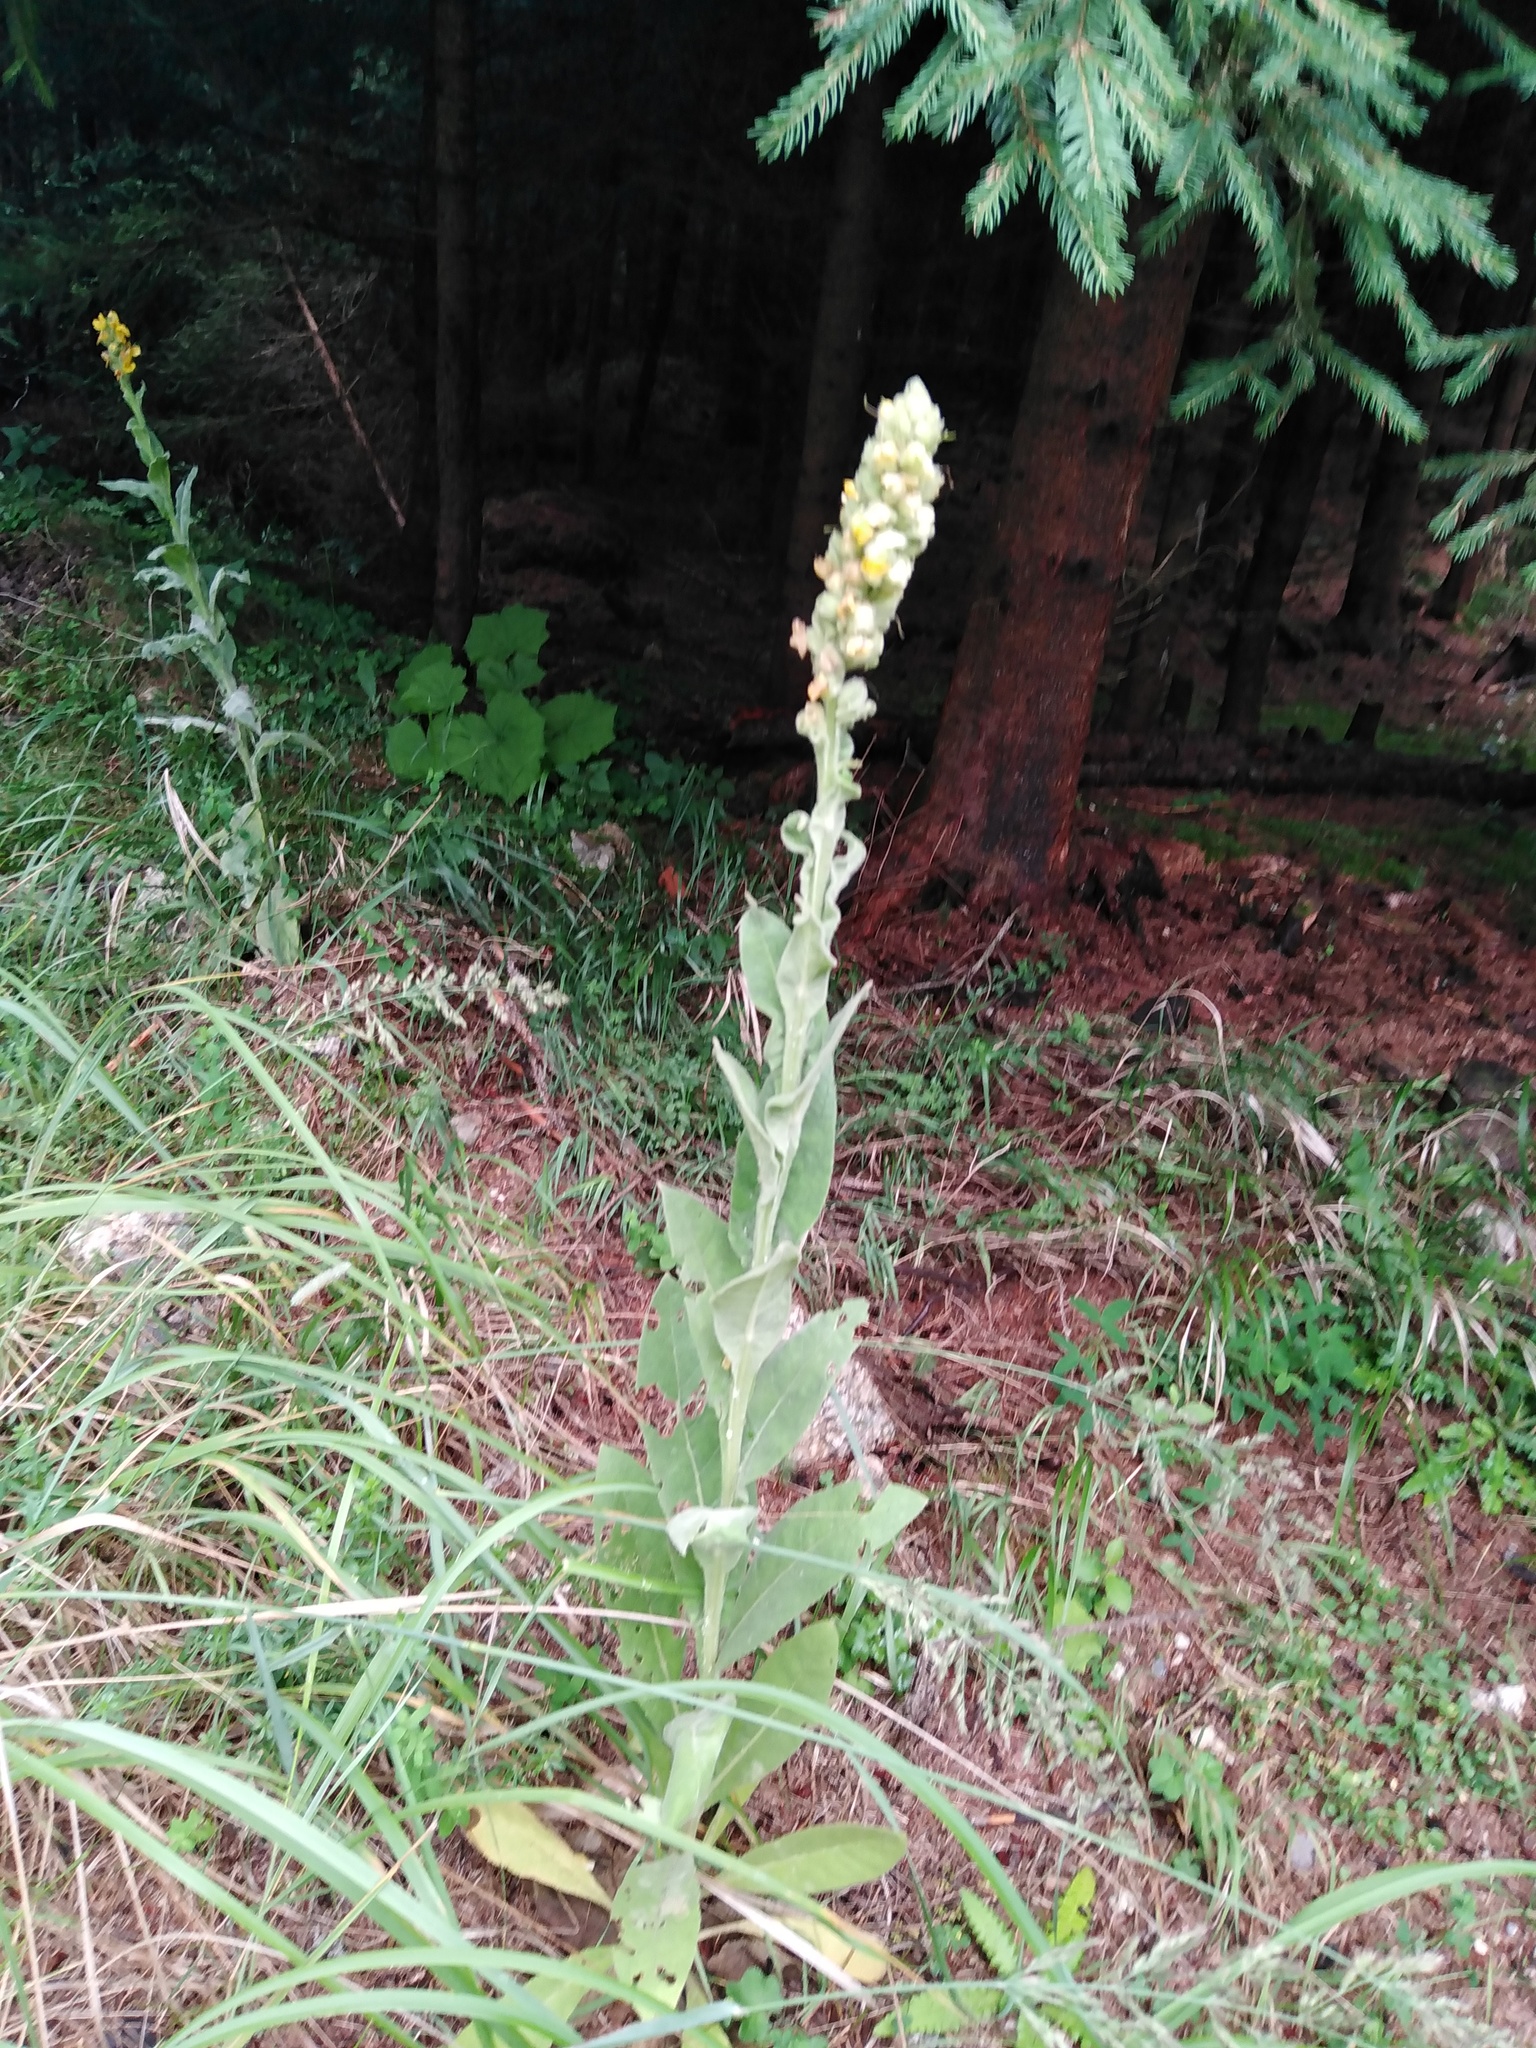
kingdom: Plantae
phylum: Tracheophyta
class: Magnoliopsida
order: Lamiales
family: Scrophulariaceae
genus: Verbascum
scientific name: Verbascum thapsus
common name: Common mullein
